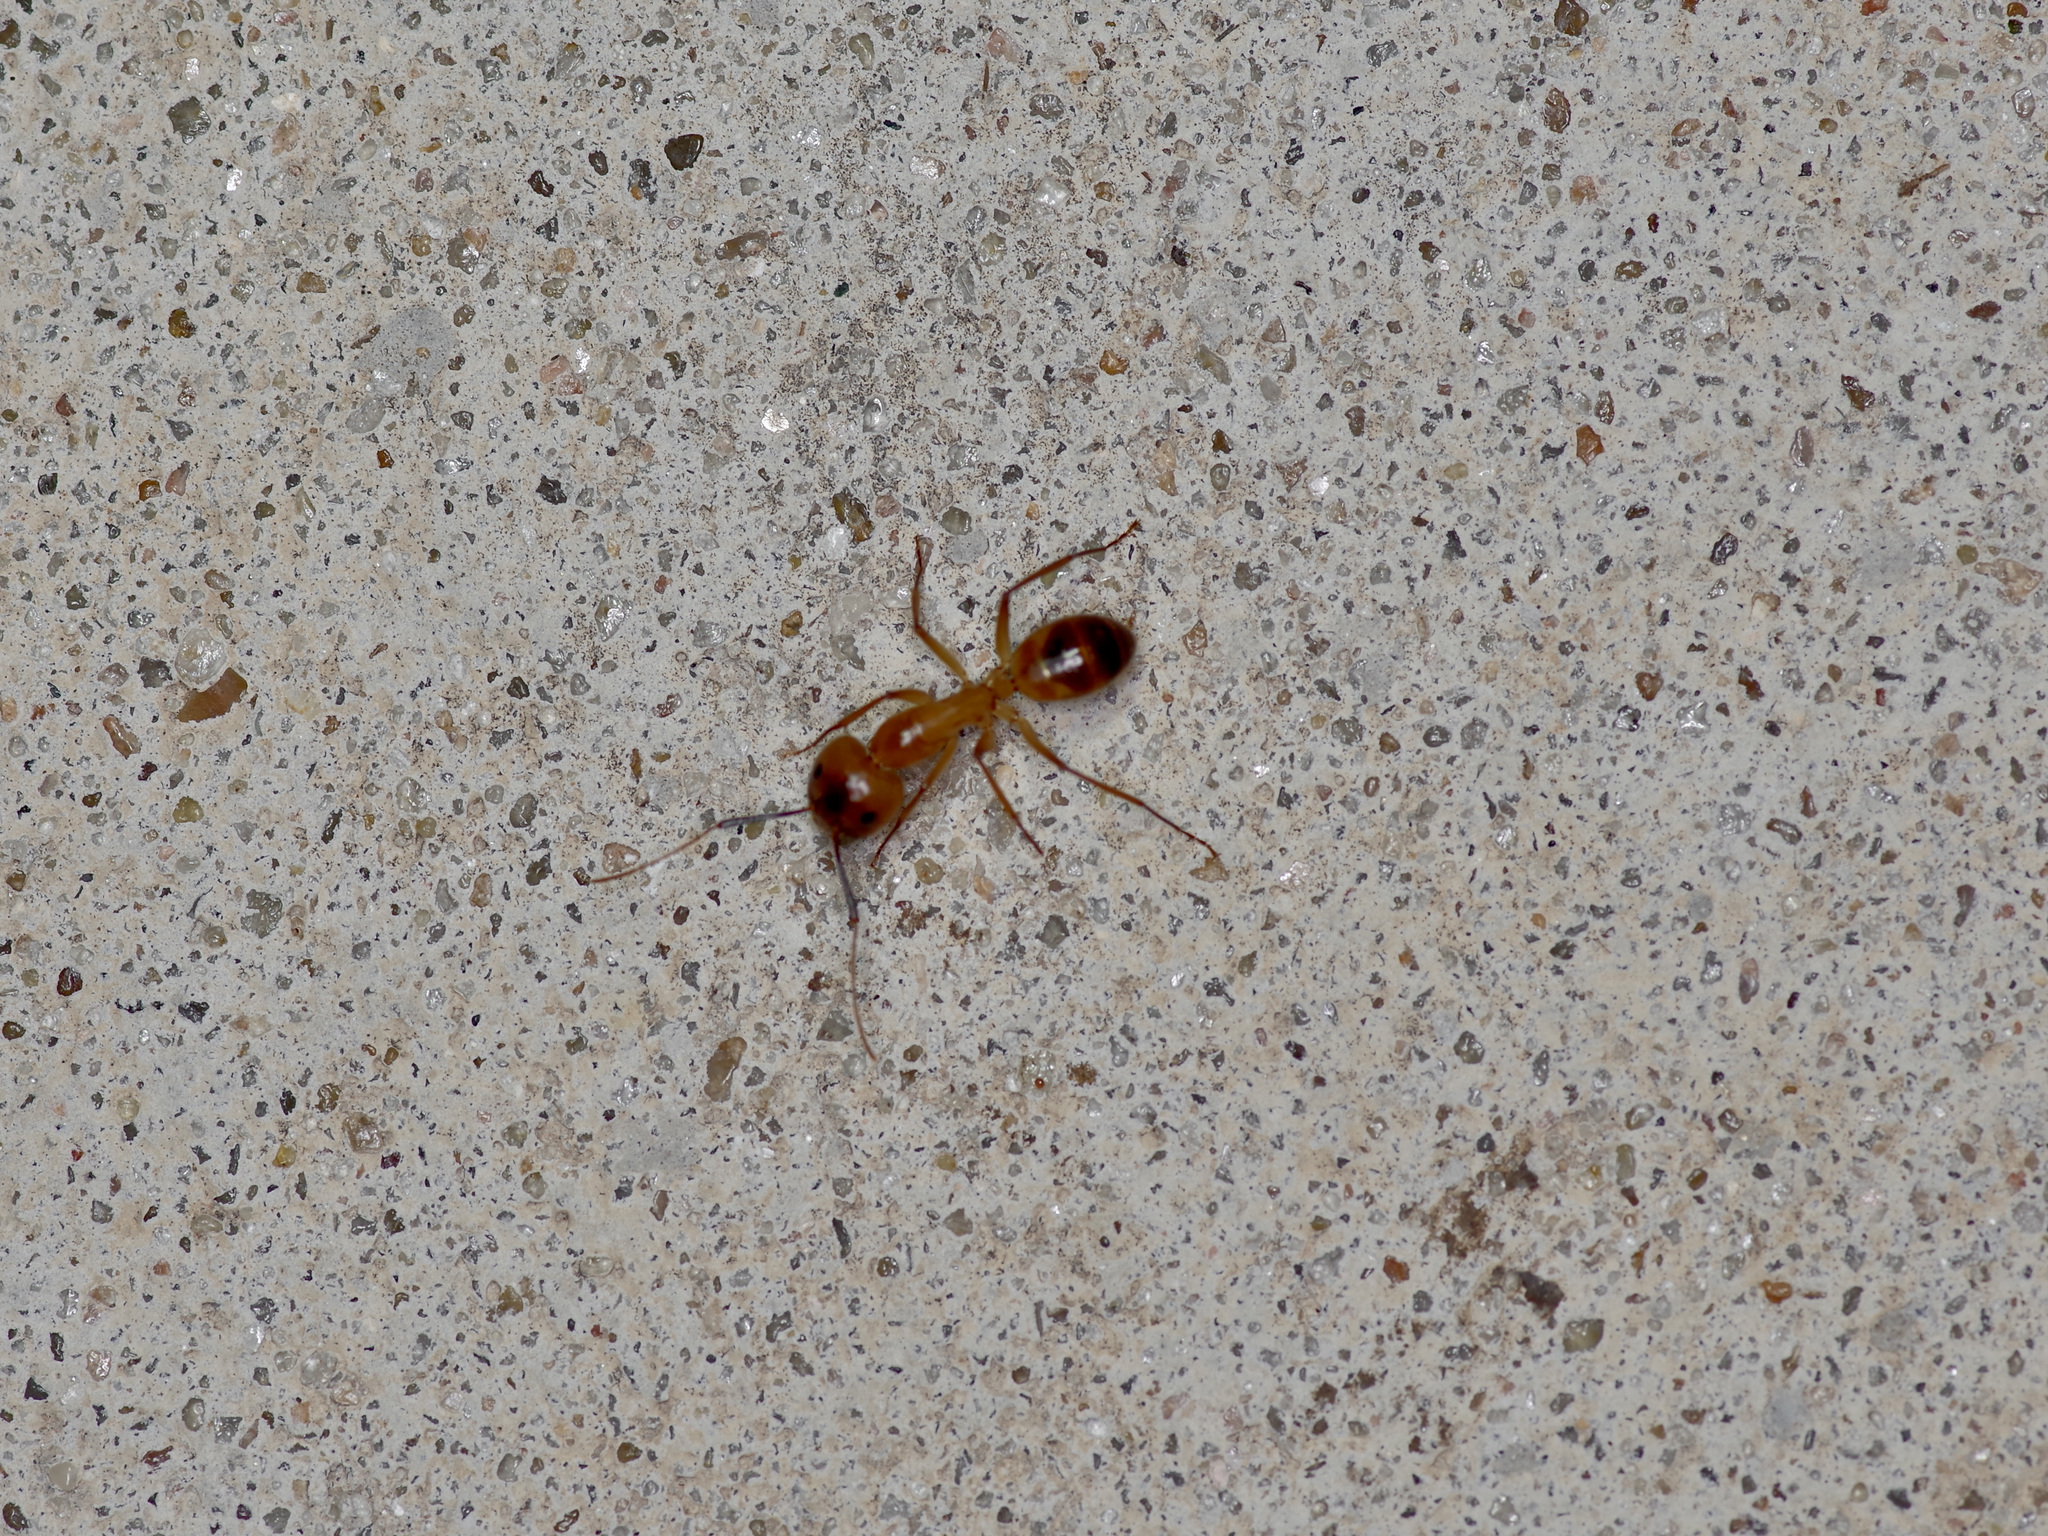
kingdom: Animalia
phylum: Arthropoda
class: Insecta
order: Hymenoptera
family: Formicidae
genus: Camponotus
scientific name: Camponotus festinatus
